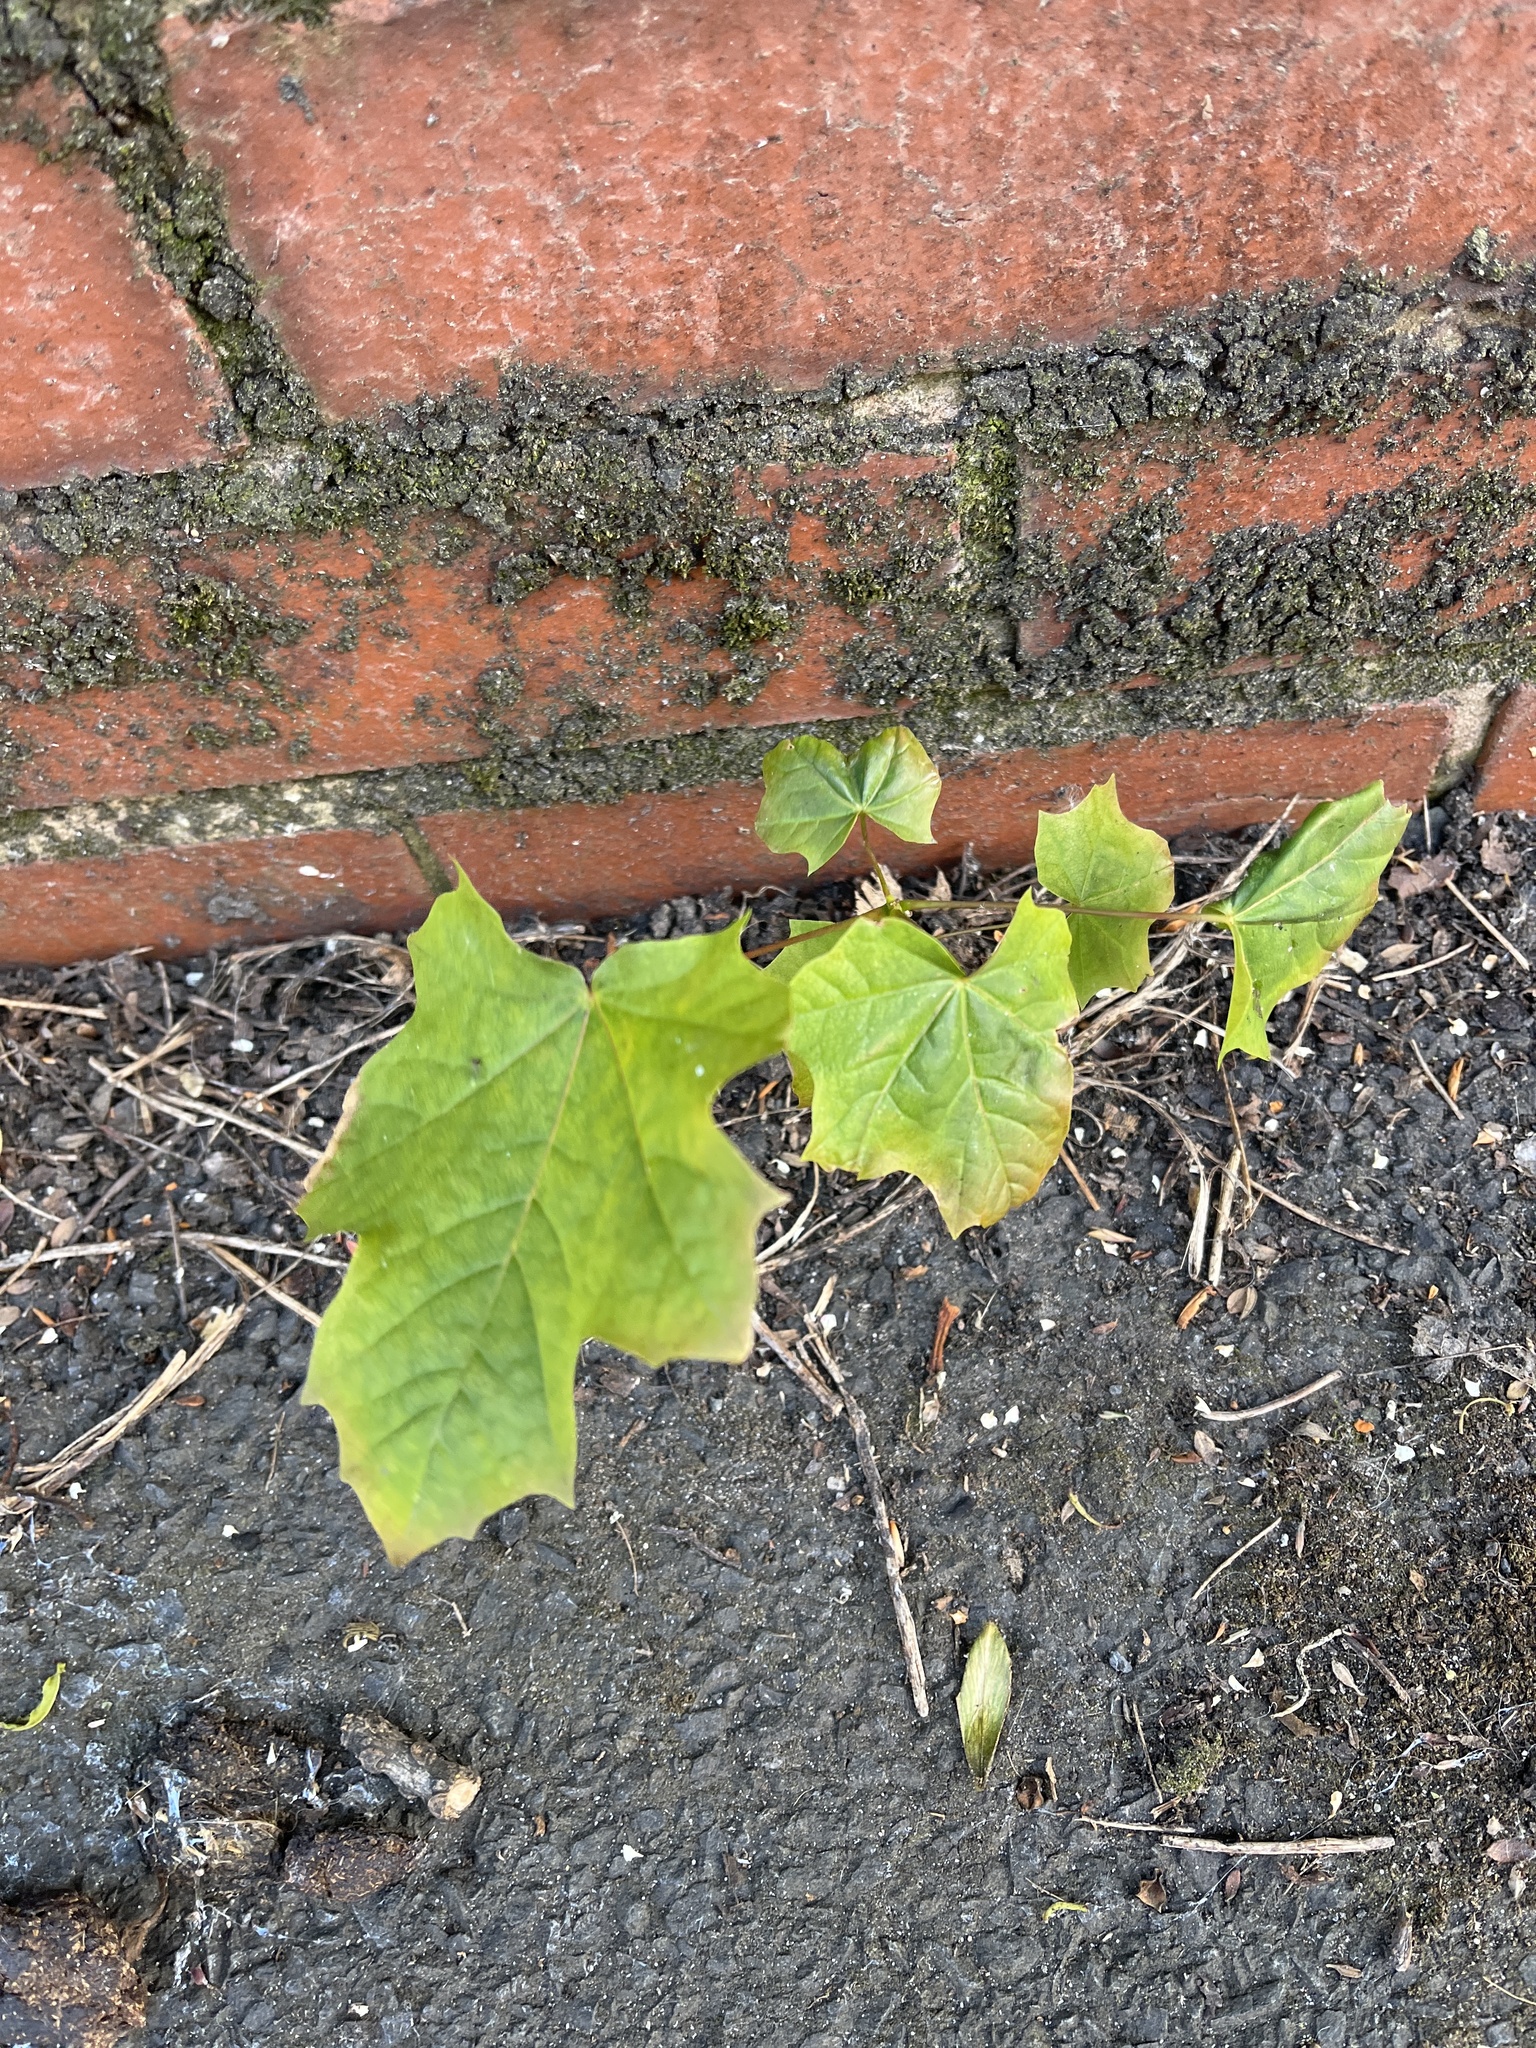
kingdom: Plantae
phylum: Tracheophyta
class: Magnoliopsida
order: Sapindales
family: Sapindaceae
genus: Acer
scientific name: Acer platanoides
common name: Norway maple
